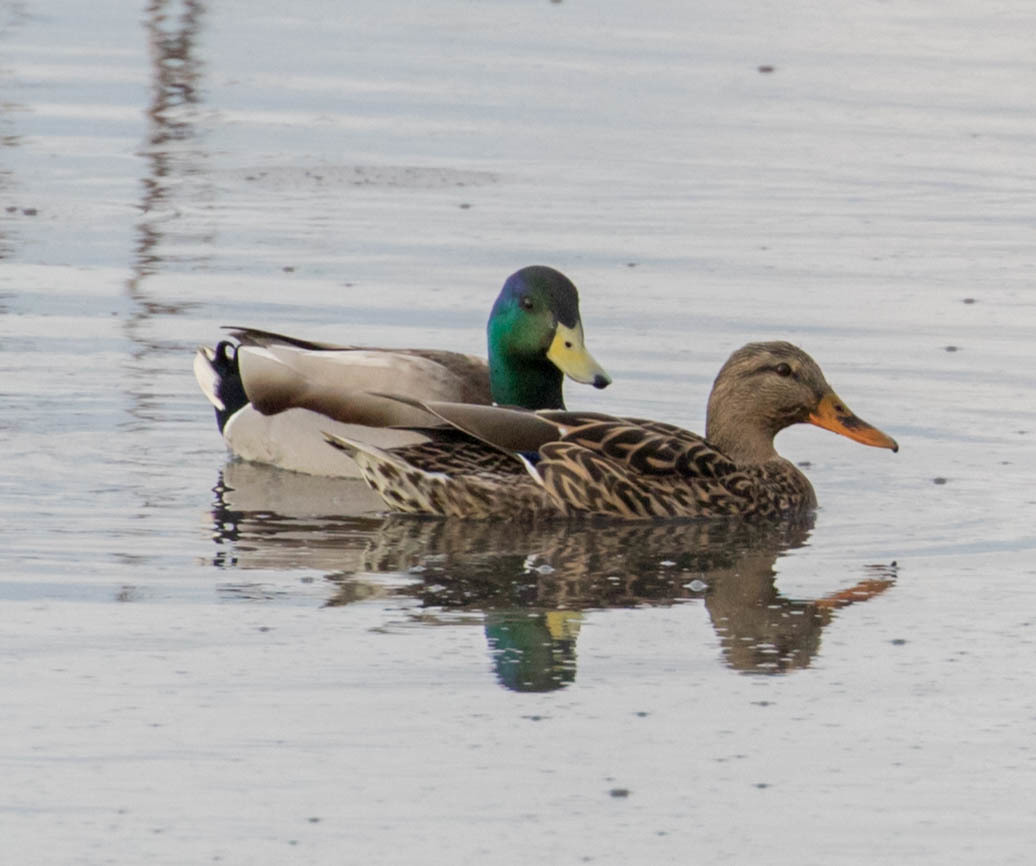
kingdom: Animalia
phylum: Chordata
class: Aves
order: Anseriformes
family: Anatidae
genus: Anas
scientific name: Anas platyrhynchos
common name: Mallard
